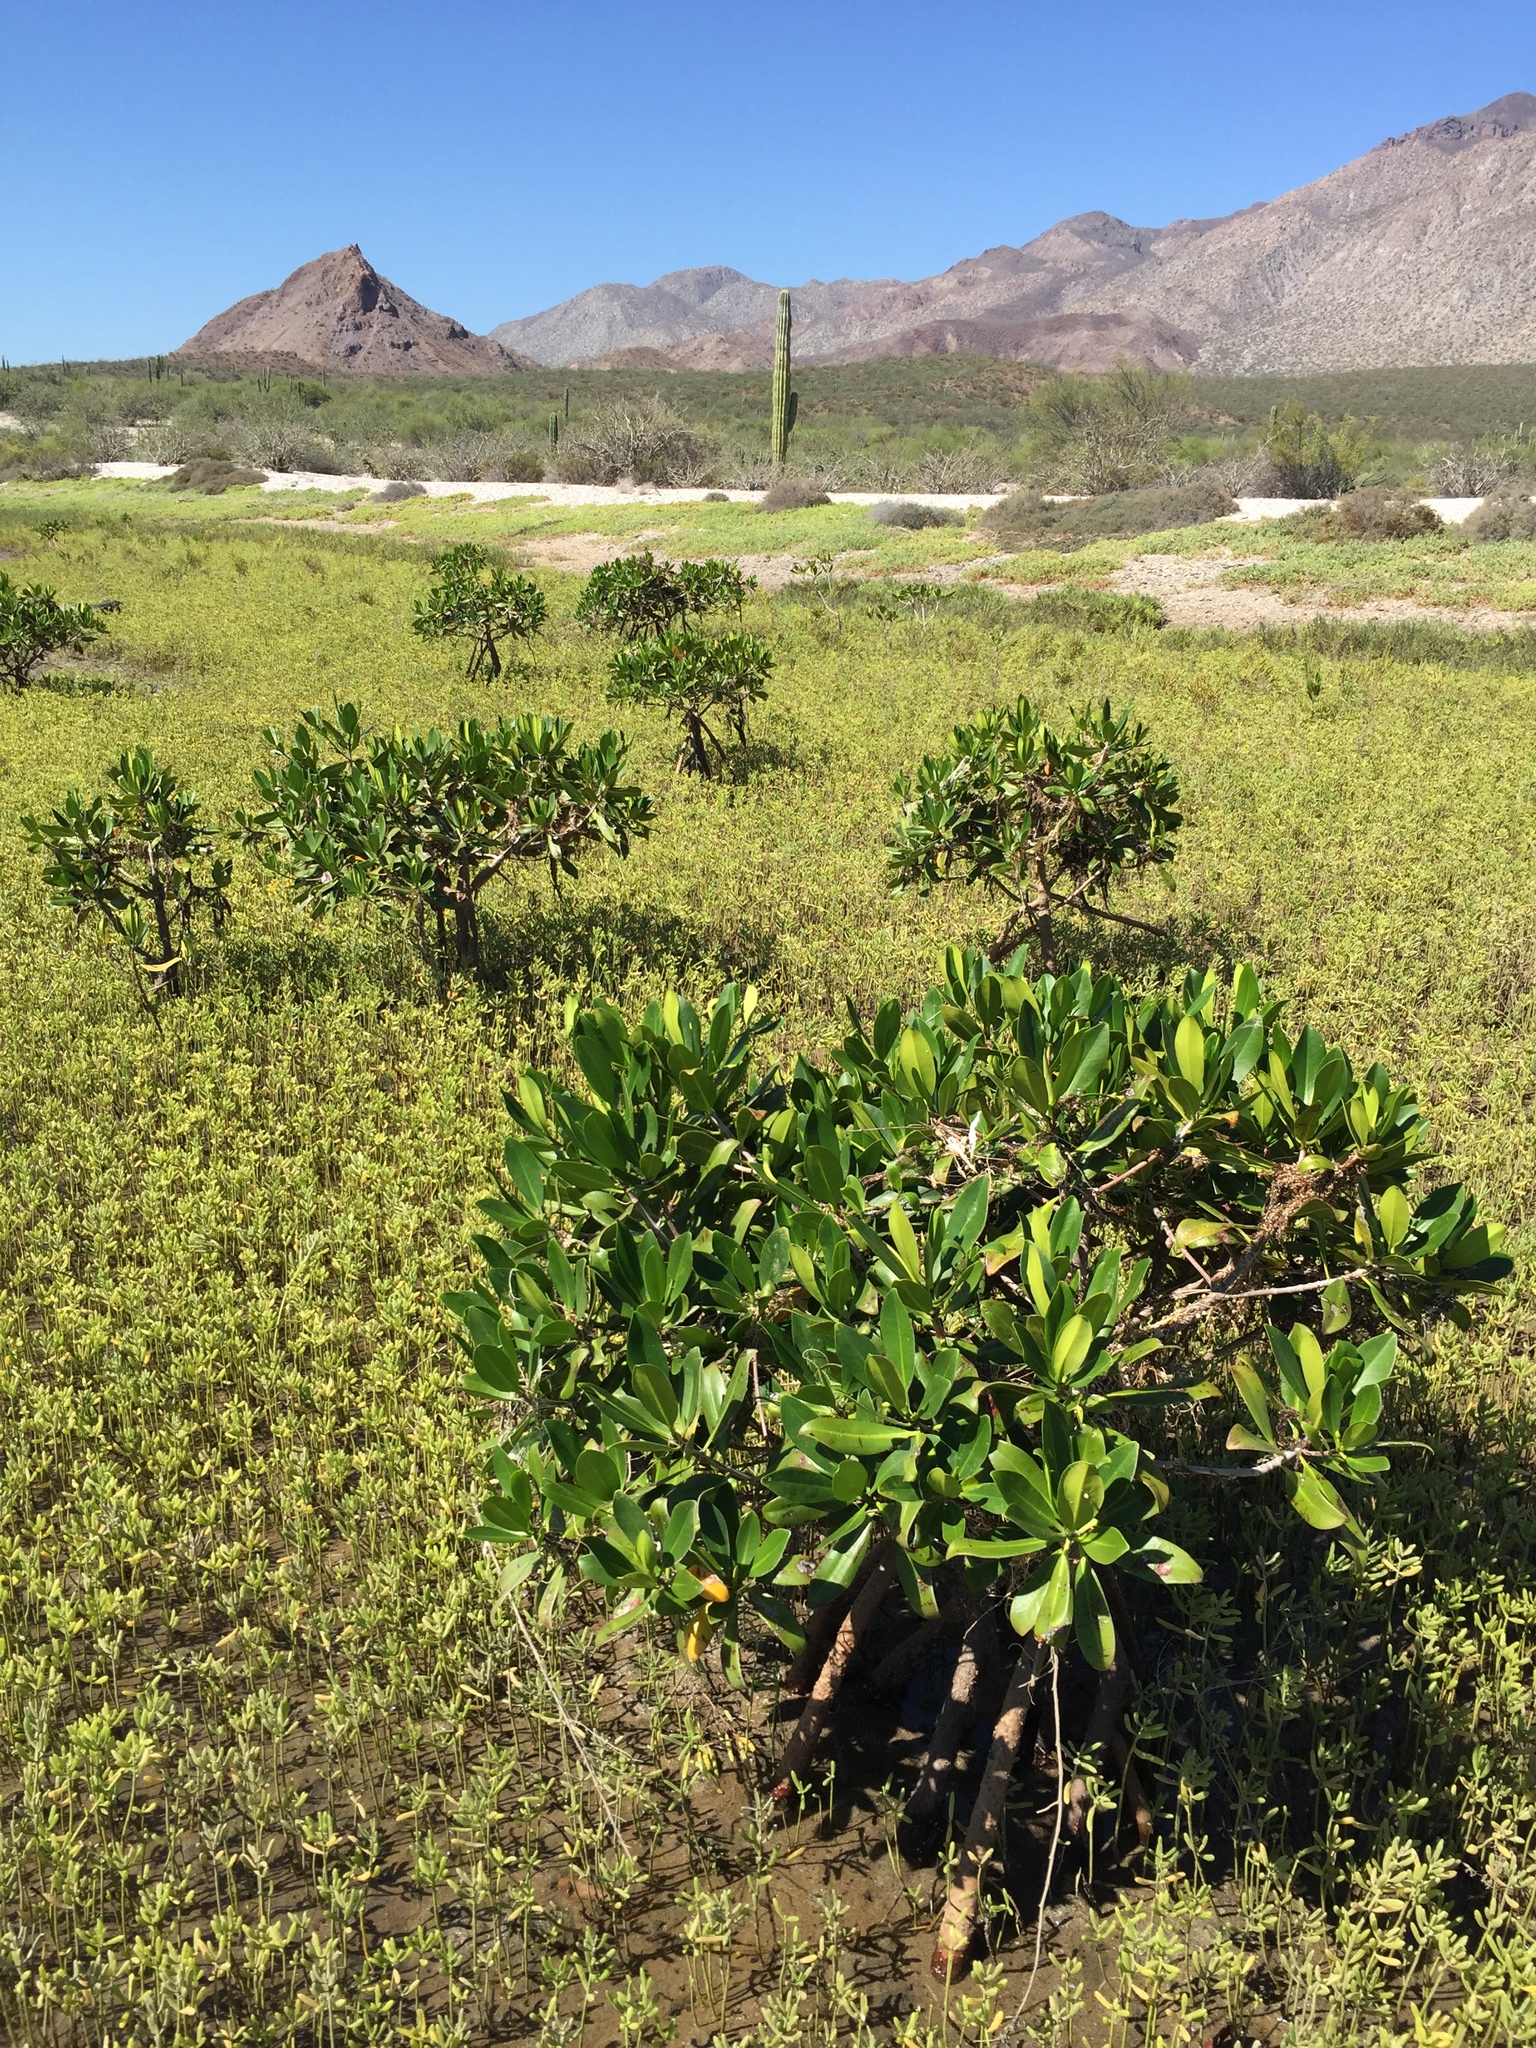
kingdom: Plantae
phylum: Tracheophyta
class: Magnoliopsida
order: Malpighiales
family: Rhizophoraceae
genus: Rhizophora
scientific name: Rhizophora mangle
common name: Red mangrove
